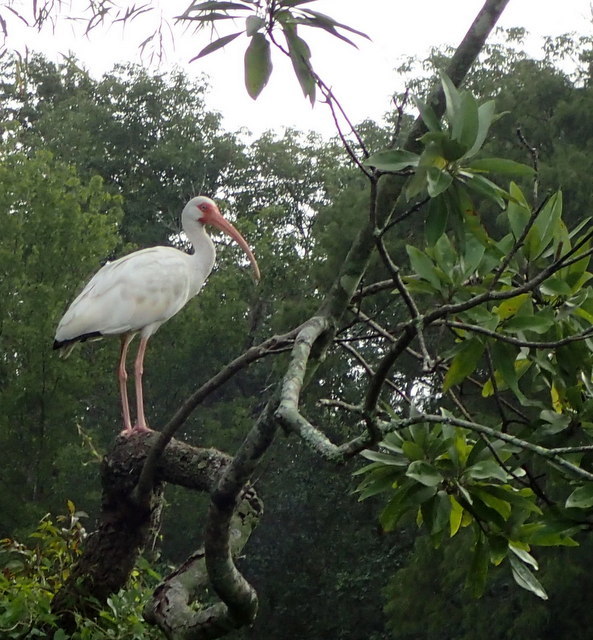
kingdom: Animalia
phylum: Chordata
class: Aves
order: Pelecaniformes
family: Threskiornithidae
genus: Eudocimus
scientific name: Eudocimus albus
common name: White ibis
